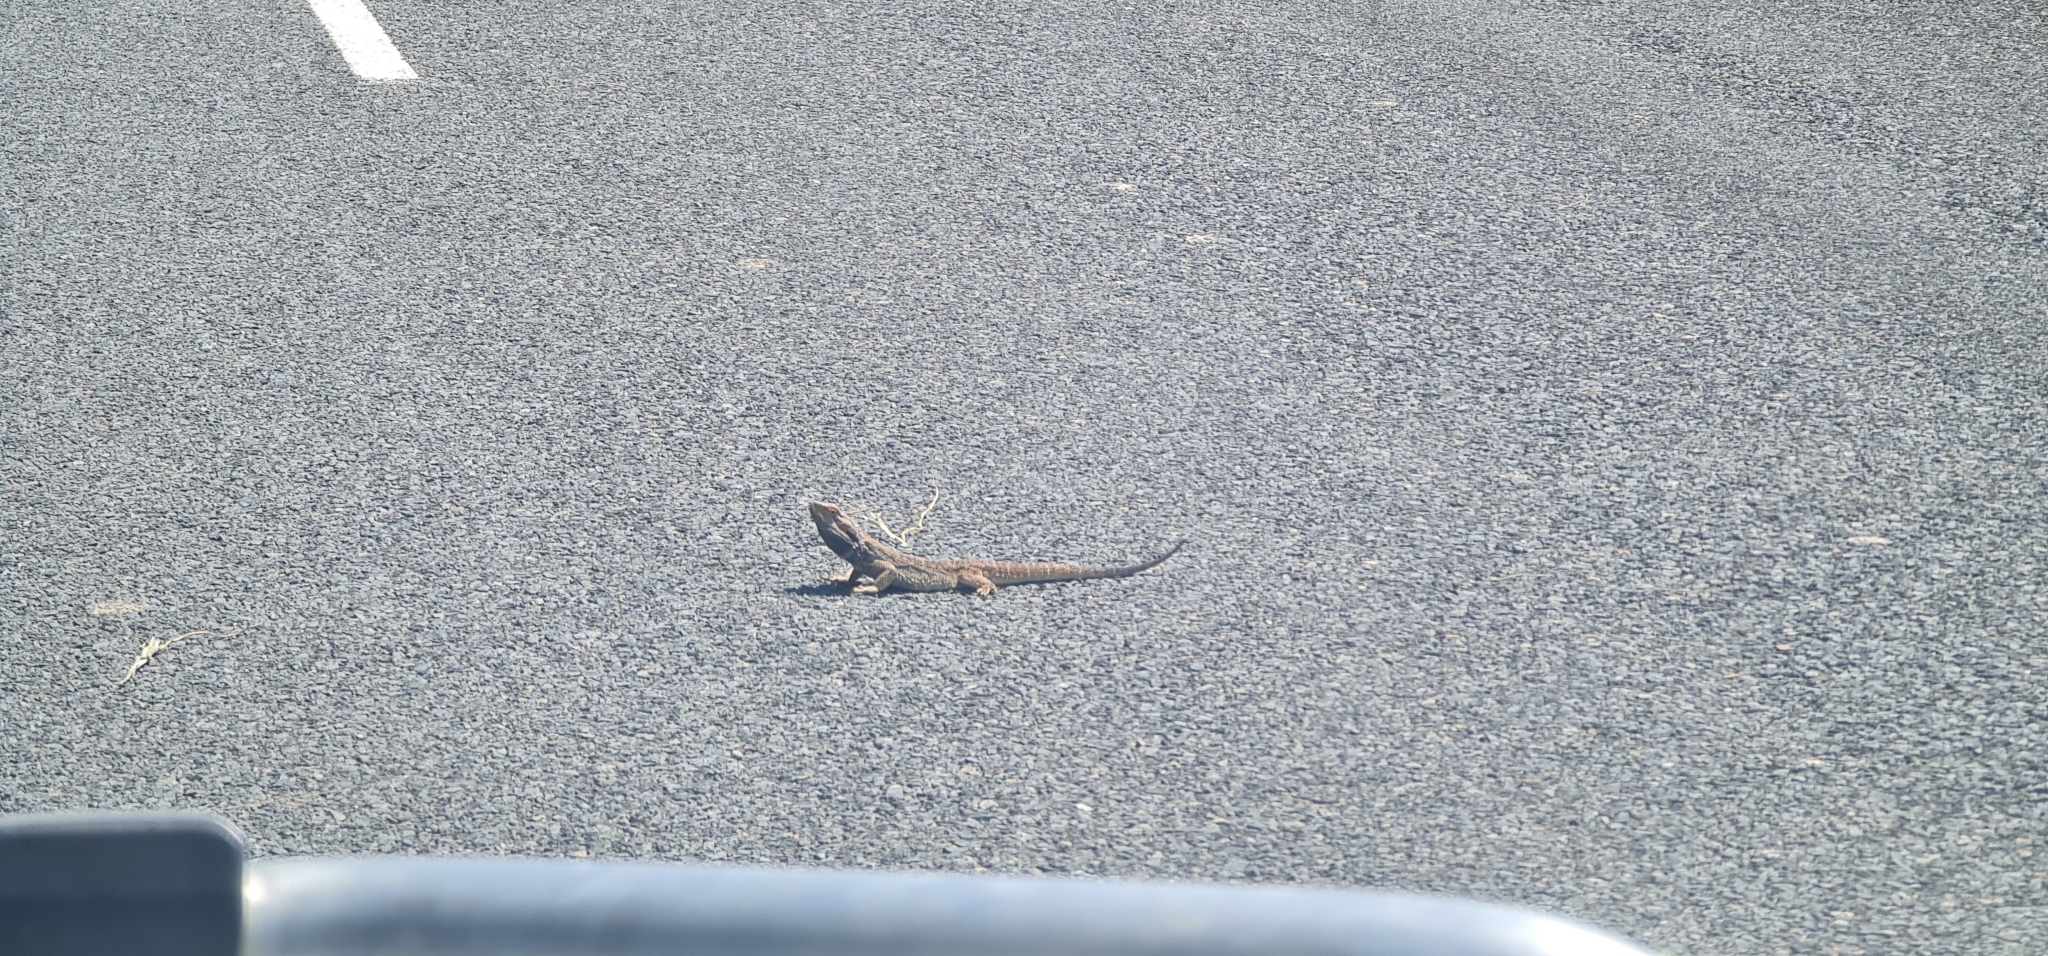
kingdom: Animalia
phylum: Chordata
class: Squamata
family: Agamidae
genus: Pogona
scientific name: Pogona barbata
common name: Bearded dragon
